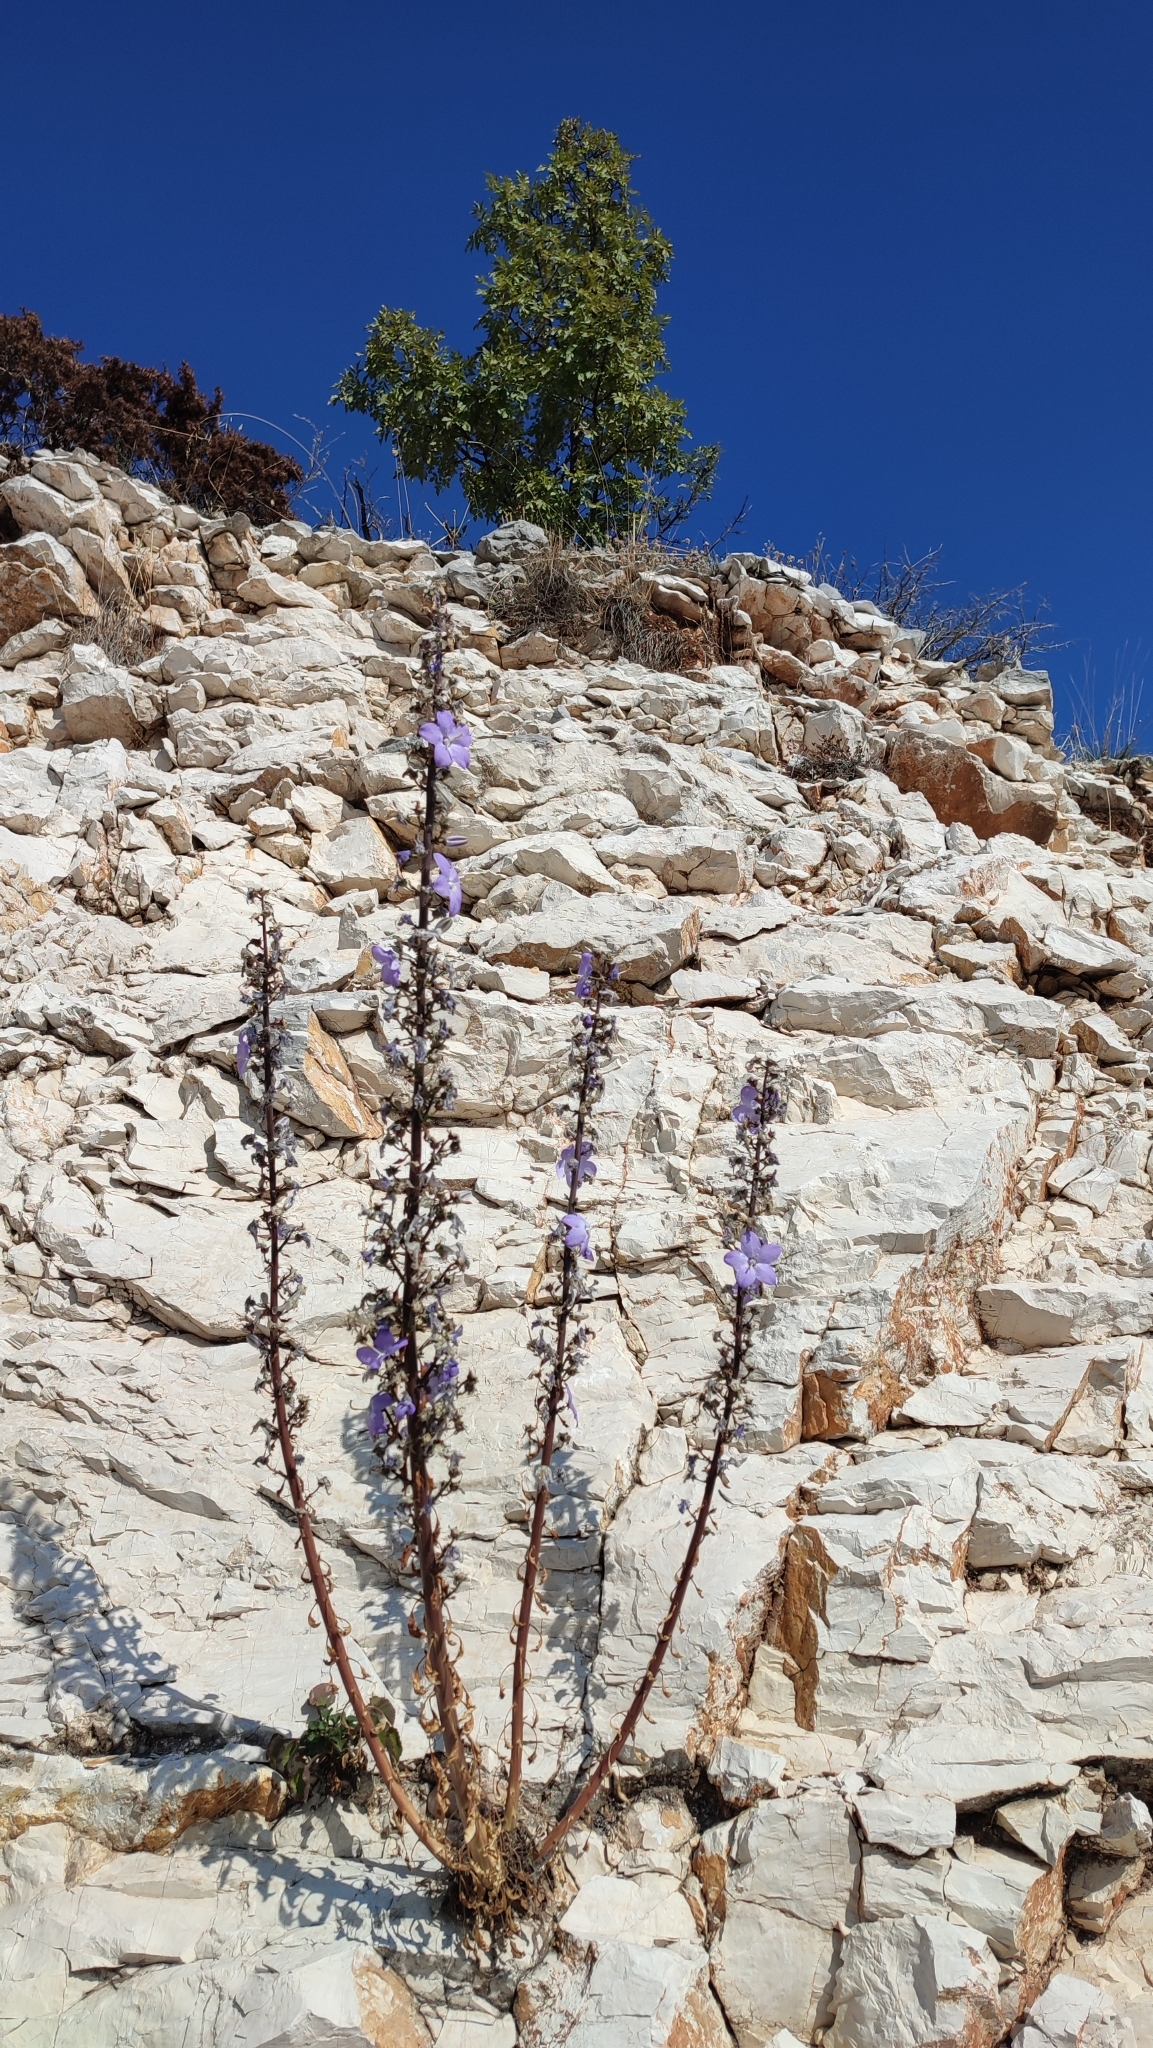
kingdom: Plantae
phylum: Tracheophyta
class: Magnoliopsida
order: Asterales
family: Campanulaceae
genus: Campanula
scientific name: Campanula pyramidalis
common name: Chimney bellflower
